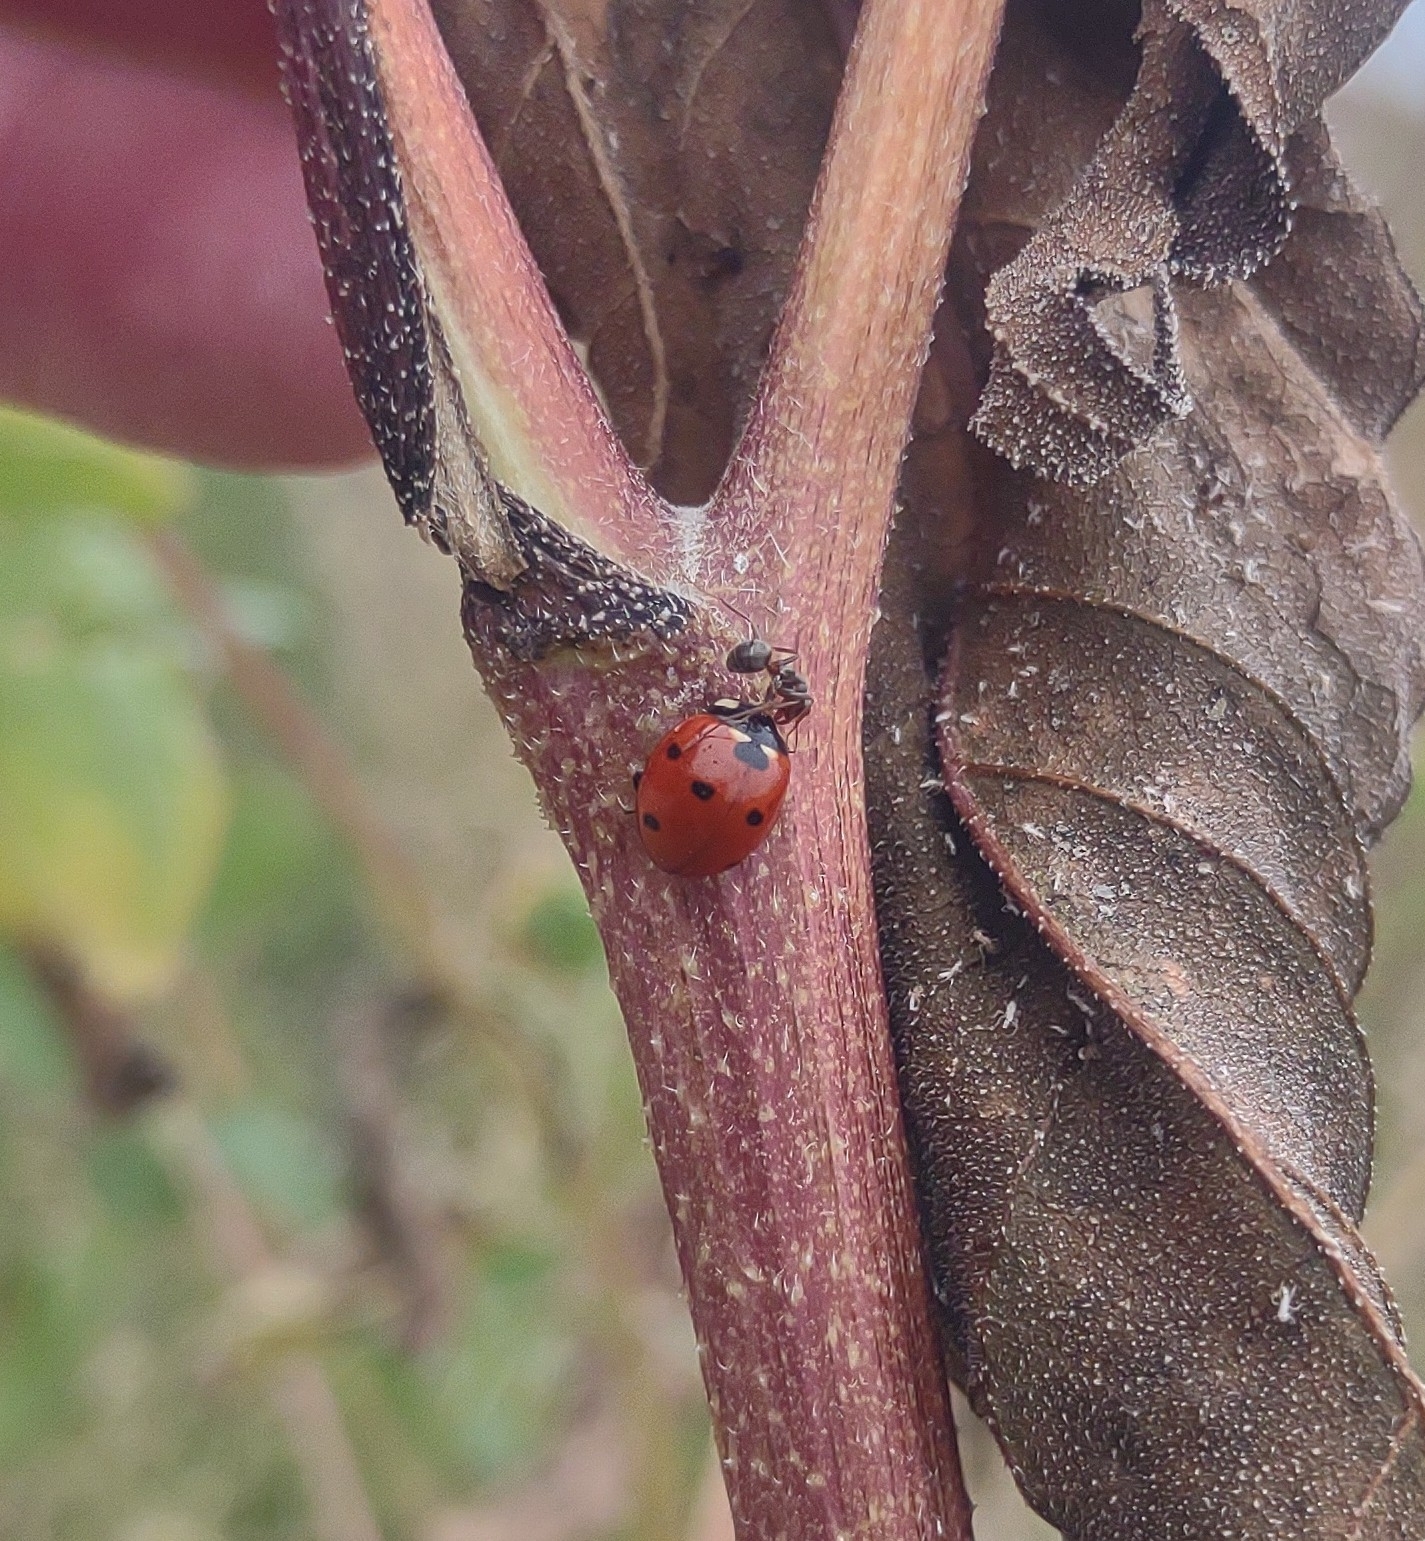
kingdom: Animalia
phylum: Arthropoda
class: Insecta
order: Coleoptera
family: Coccinellidae
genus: Coccinella
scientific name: Coccinella septempunctata
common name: Sevenspotted lady beetle
